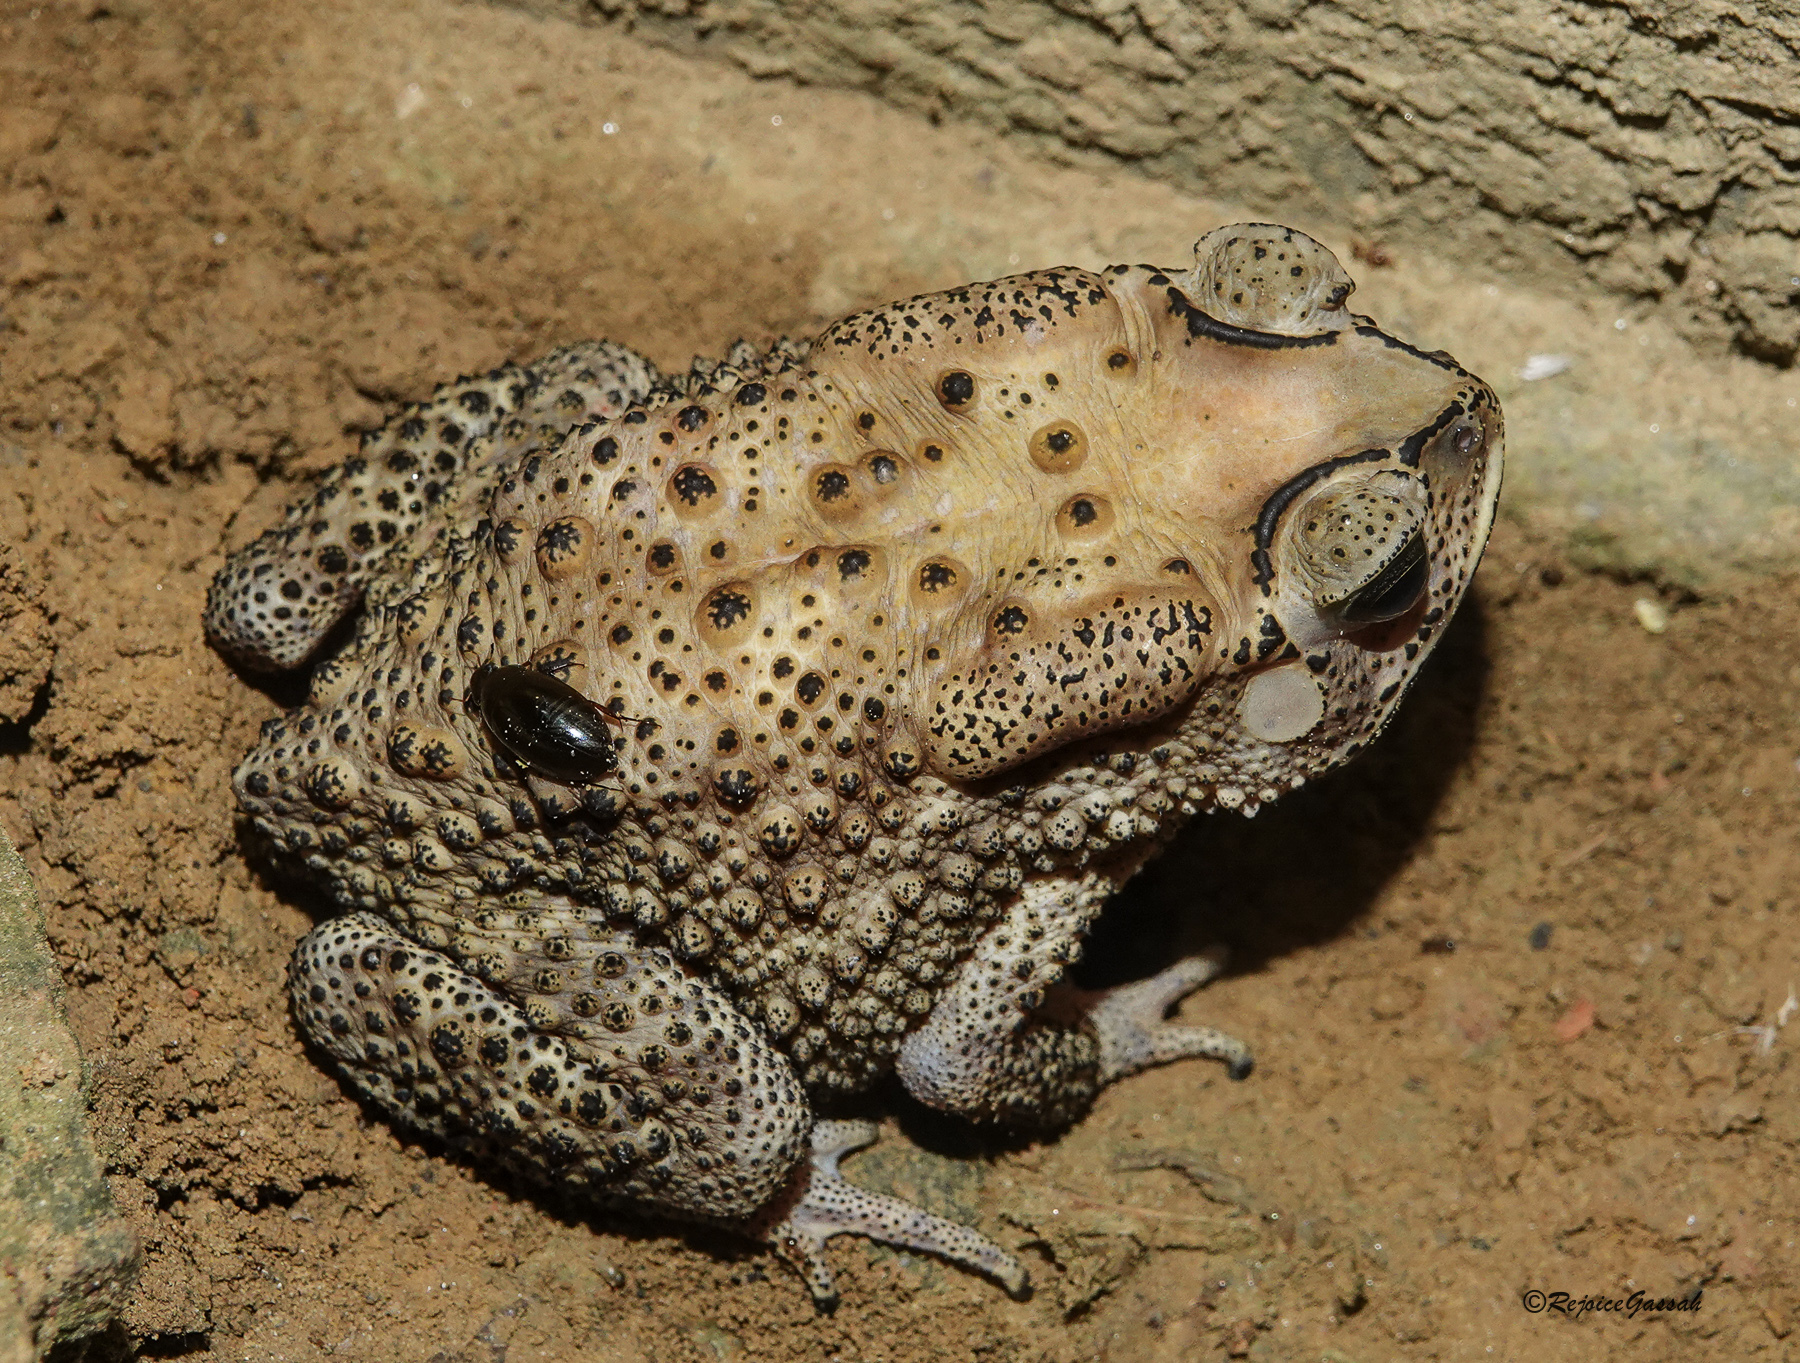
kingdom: Animalia
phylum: Chordata
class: Amphibia
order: Anura
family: Bufonidae
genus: Duttaphrynus
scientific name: Duttaphrynus melanostictus
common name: Common sunda toad
